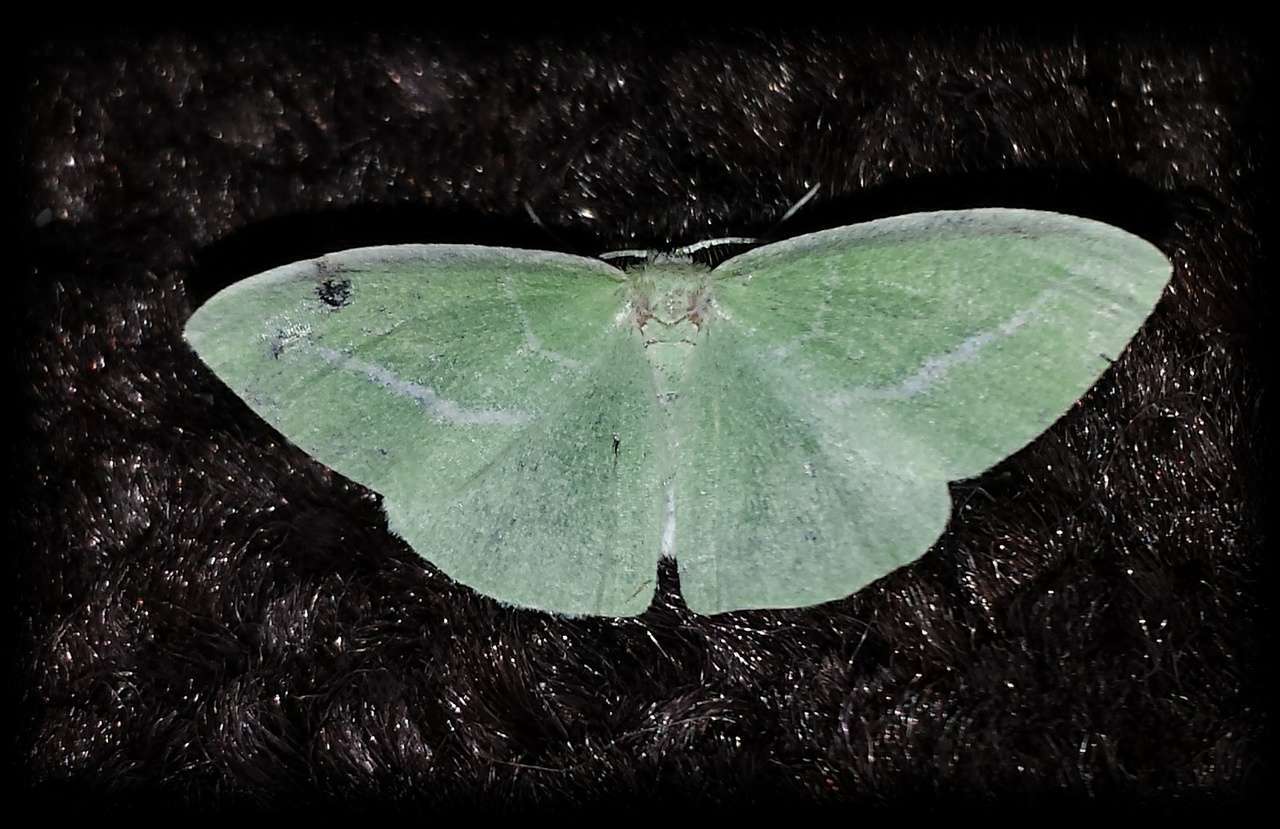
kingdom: Animalia
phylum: Arthropoda
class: Insecta
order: Lepidoptera
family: Geometridae
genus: Iulops
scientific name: Iulops argocrana
